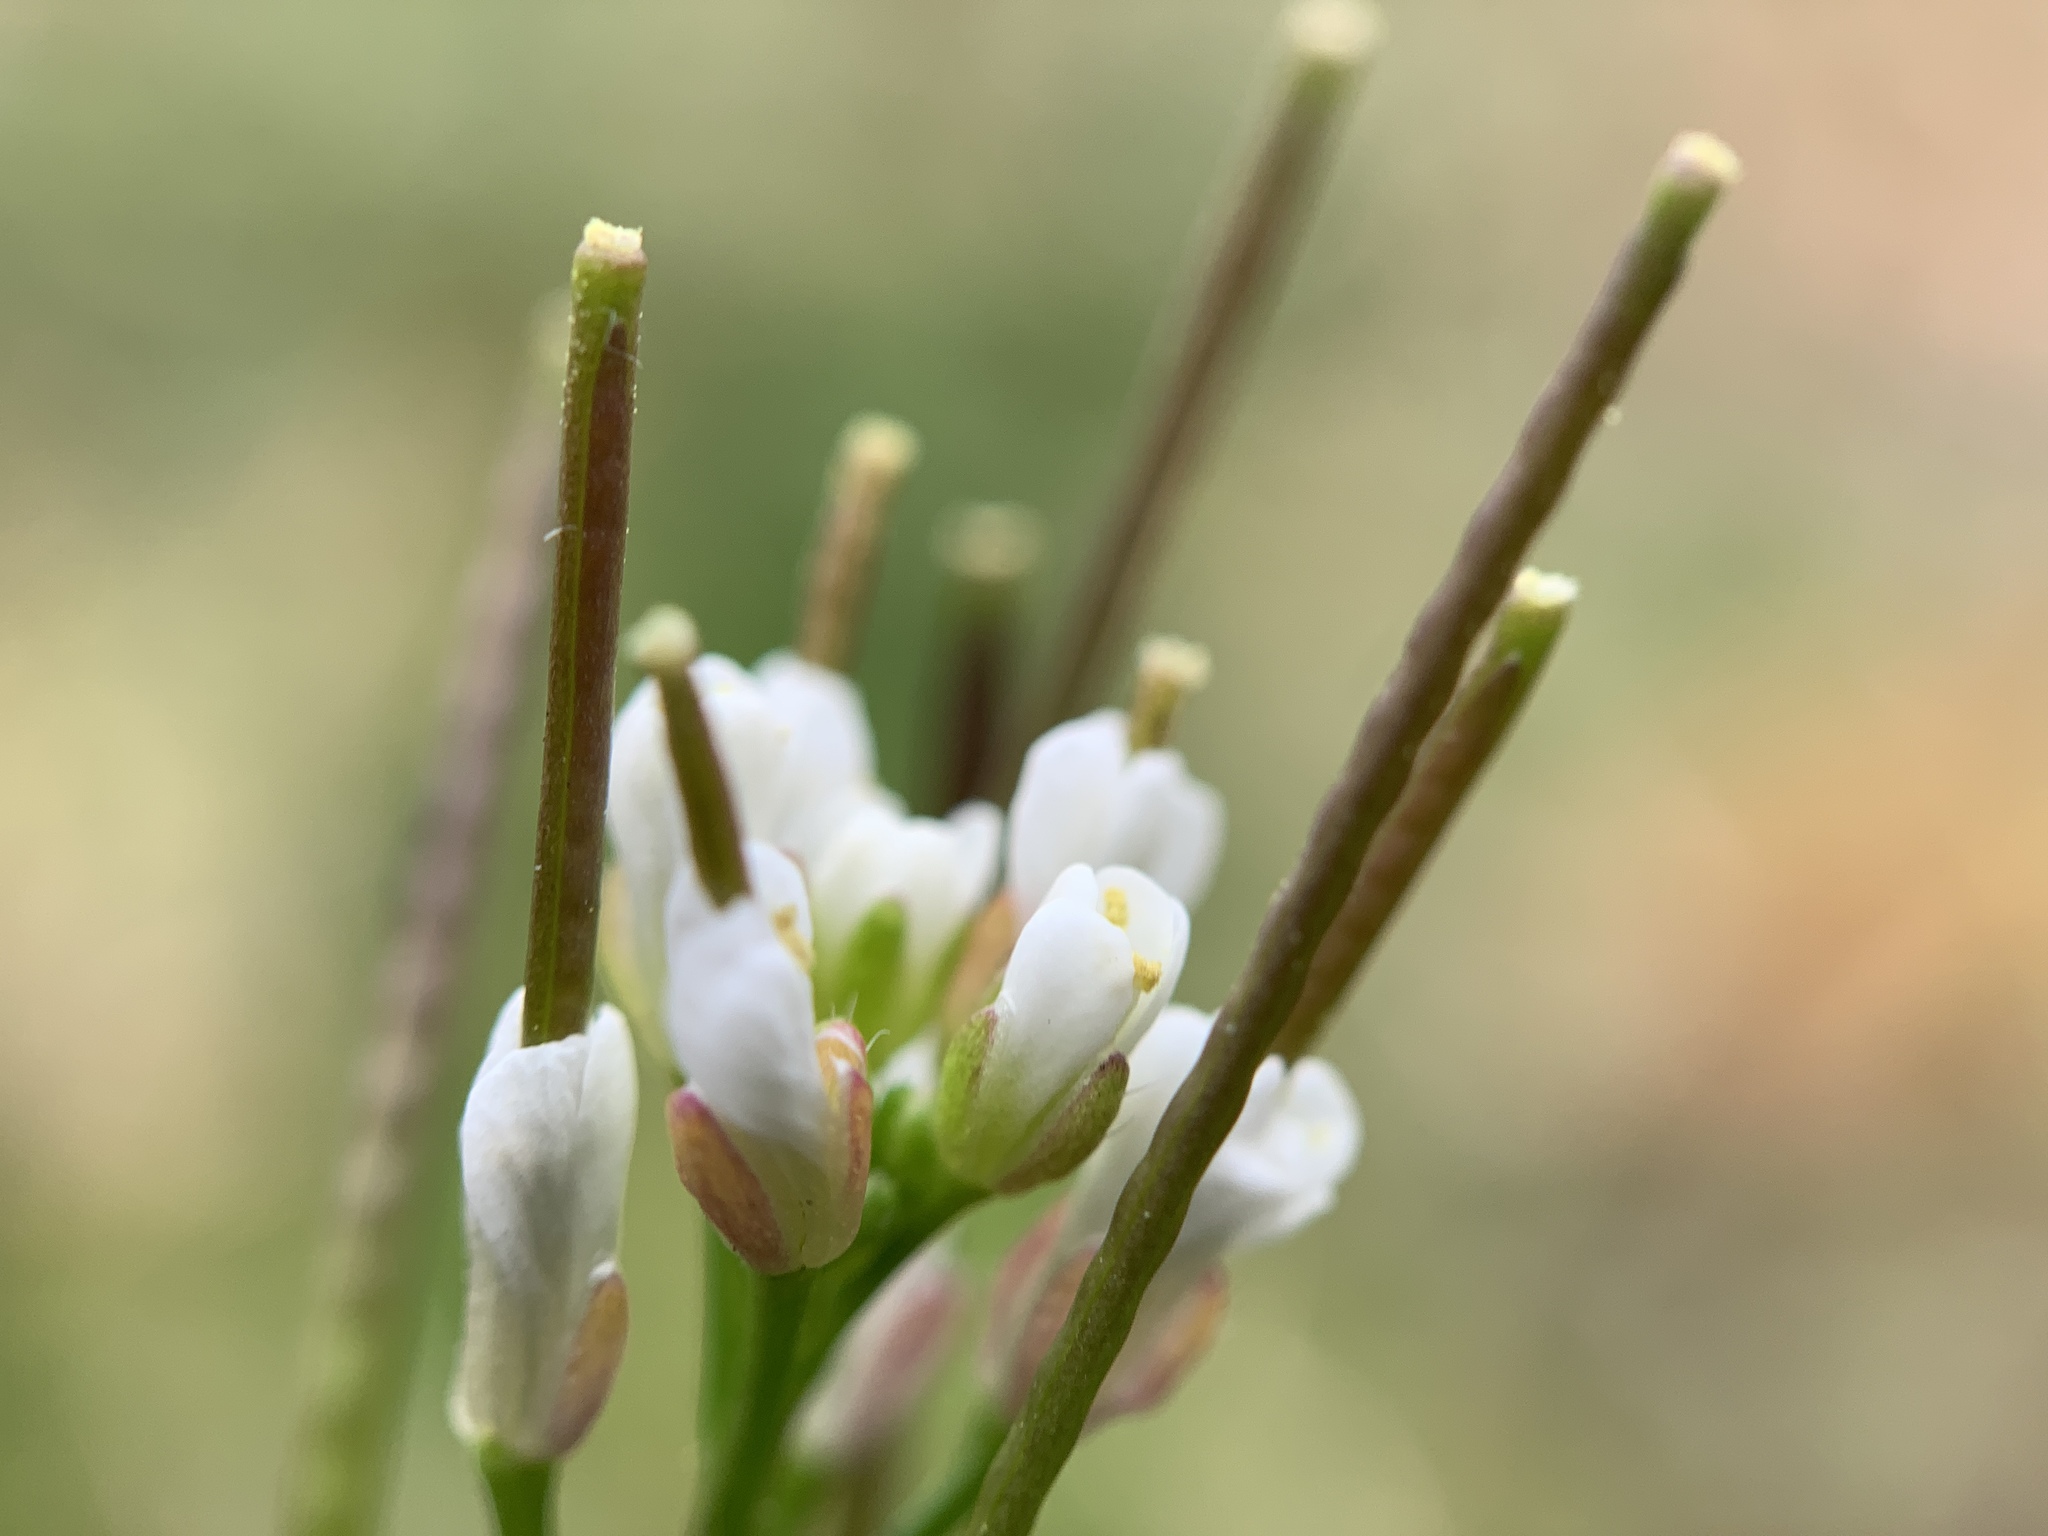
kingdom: Plantae
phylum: Tracheophyta
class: Magnoliopsida
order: Brassicales
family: Brassicaceae
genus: Cardamine
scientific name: Cardamine hirsuta
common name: Hairy bittercress
